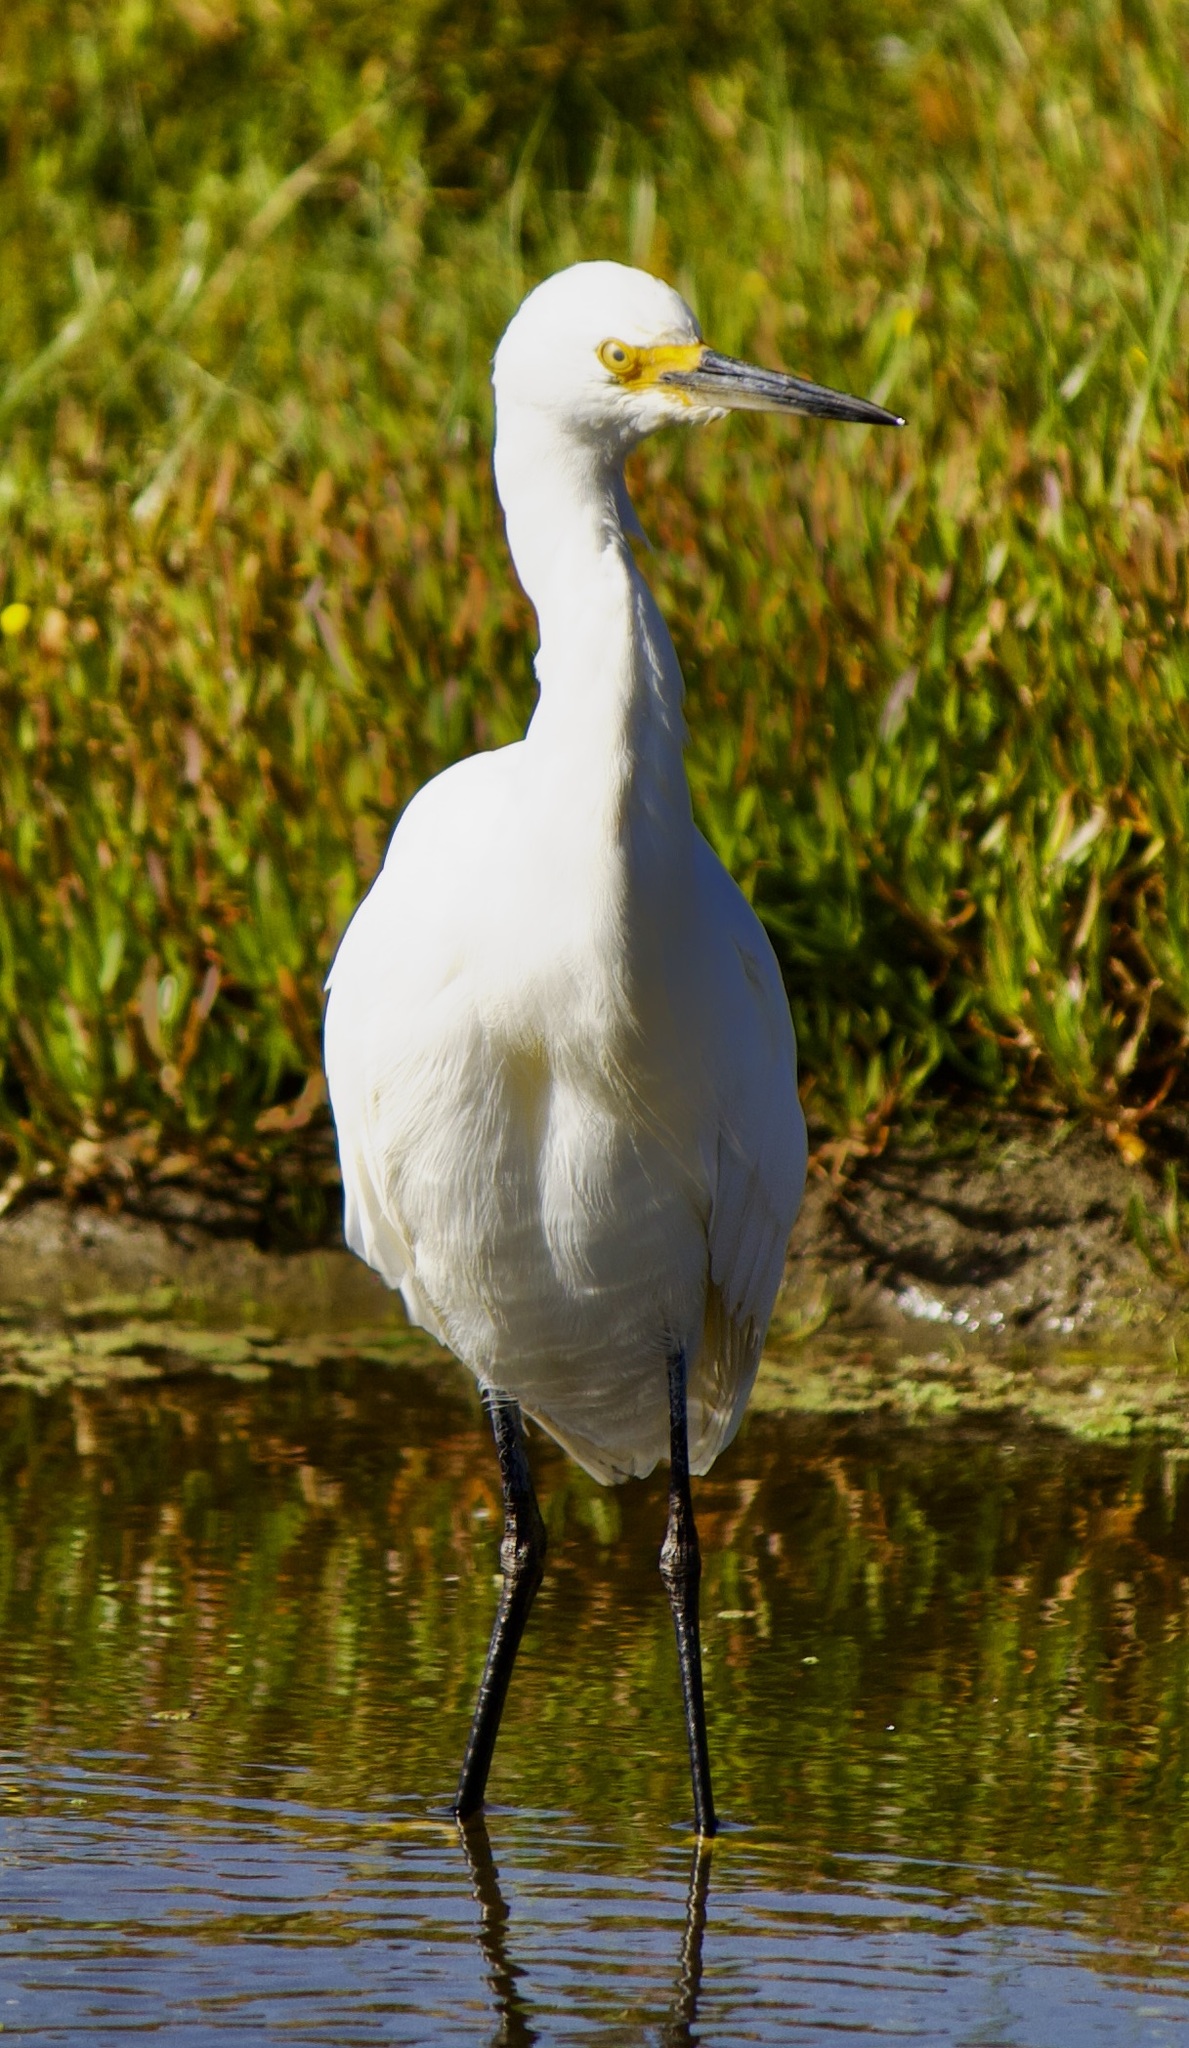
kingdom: Animalia
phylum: Chordata
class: Aves
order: Pelecaniformes
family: Ardeidae
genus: Egretta
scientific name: Egretta thula
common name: Snowy egret
